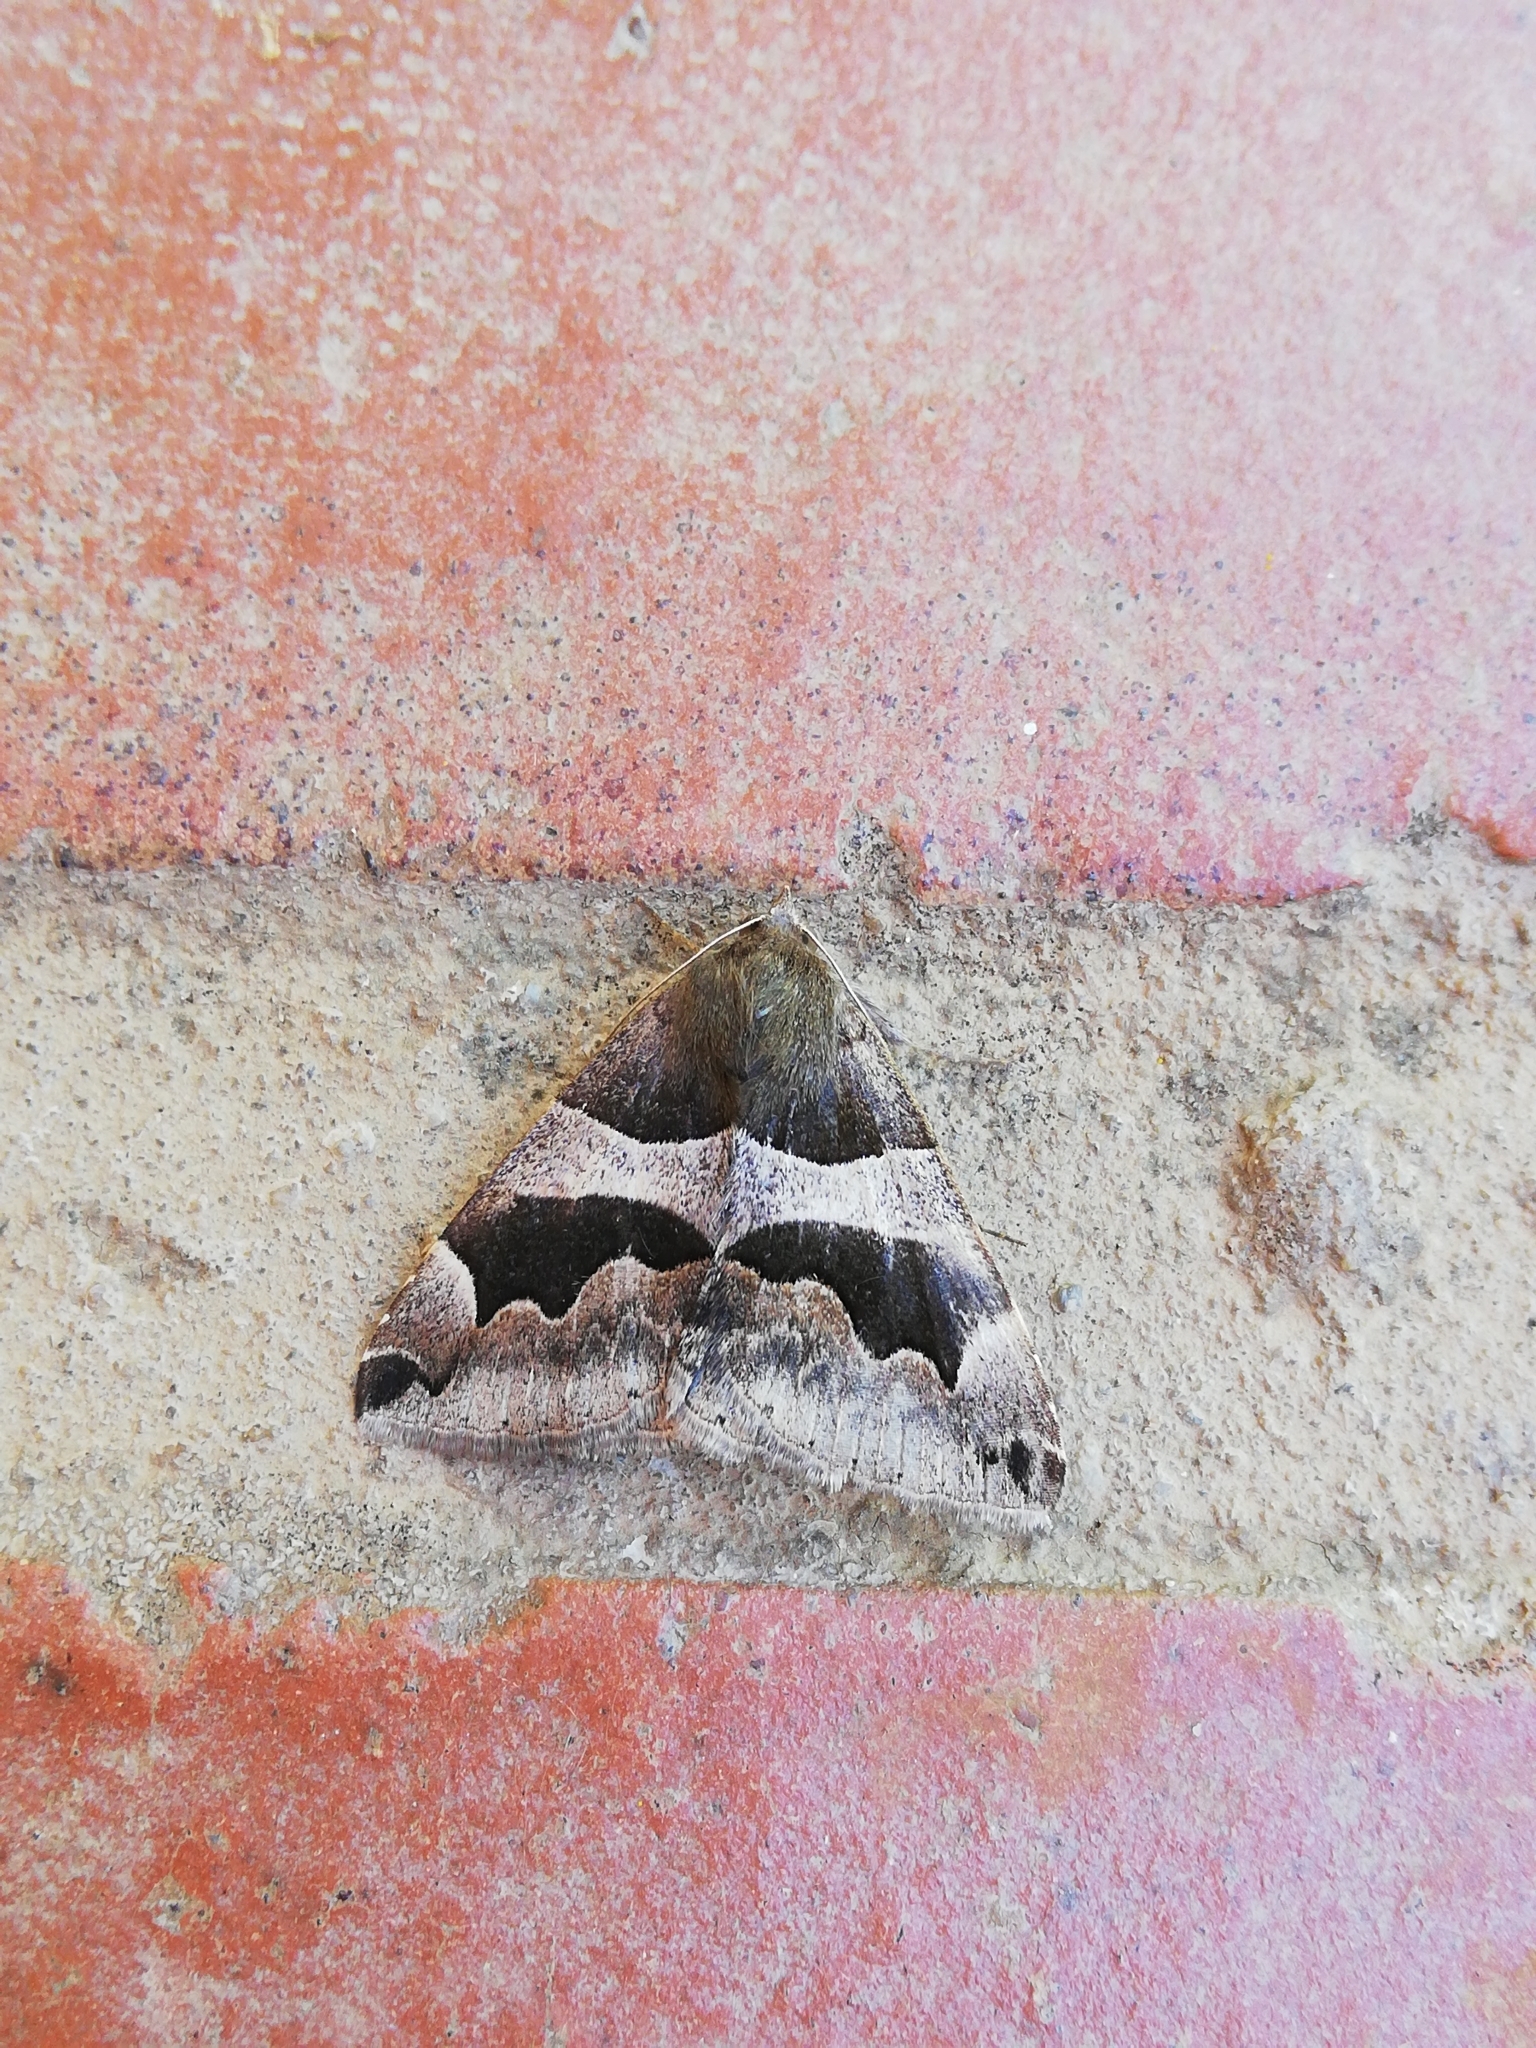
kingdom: Animalia
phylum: Arthropoda
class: Insecta
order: Lepidoptera
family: Erebidae
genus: Dysgonia
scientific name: Dysgonia torrida
